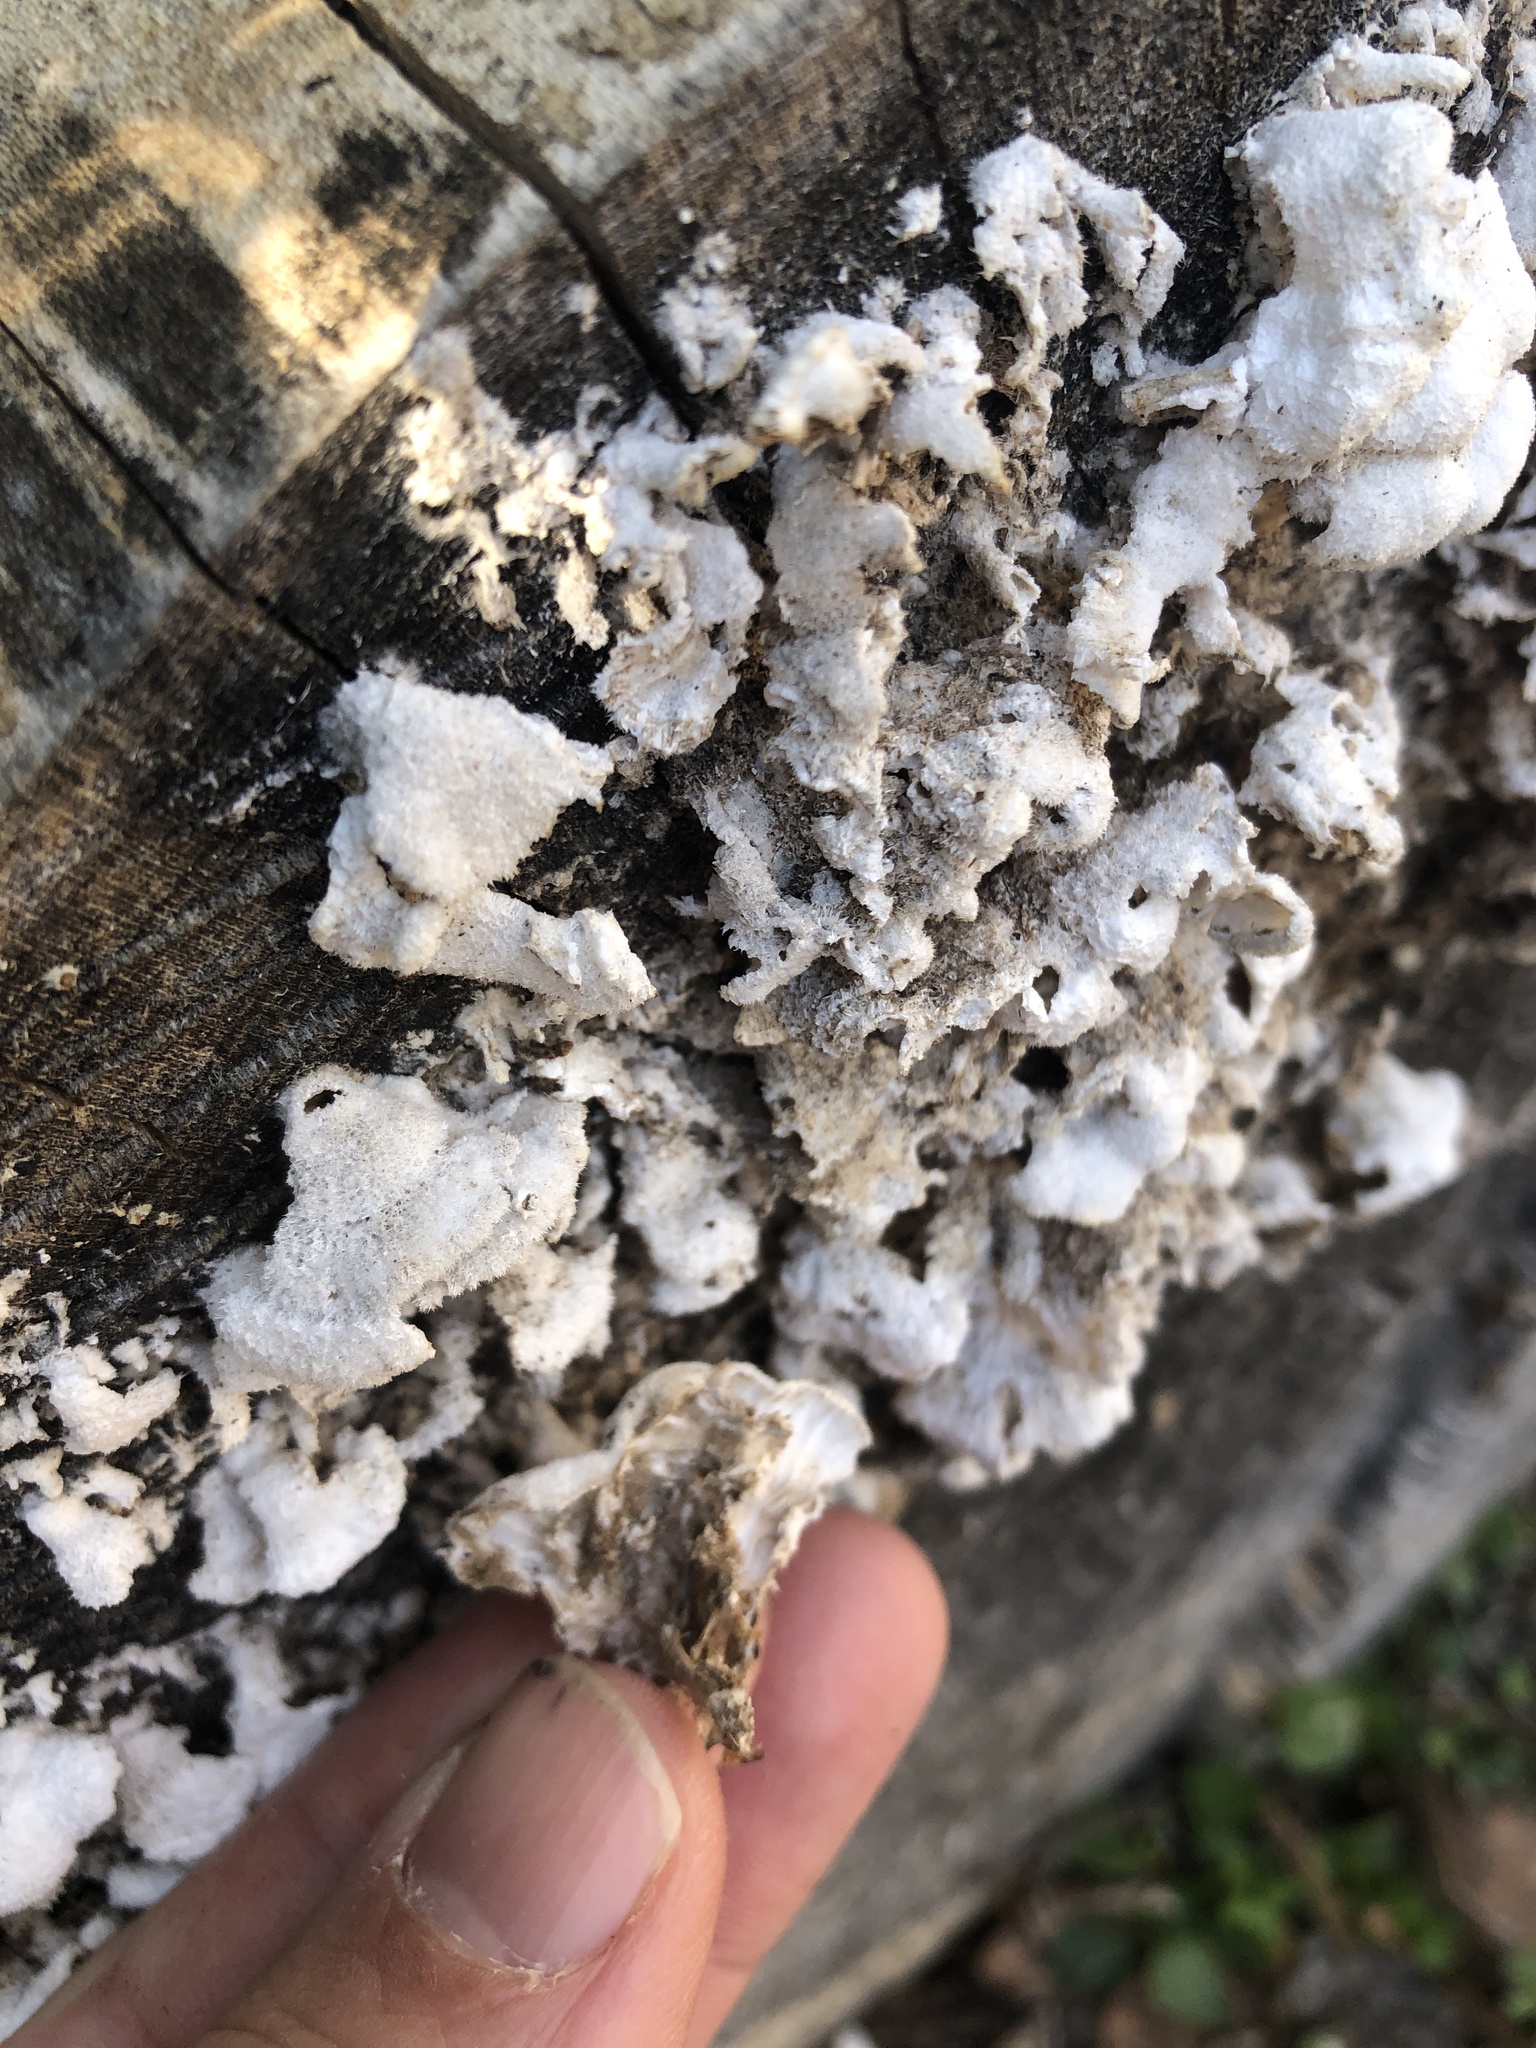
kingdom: Fungi
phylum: Basidiomycota
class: Agaricomycetes
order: Agaricales
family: Schizophyllaceae
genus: Schizophyllum
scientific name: Schizophyllum commune
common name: Common porecrust
